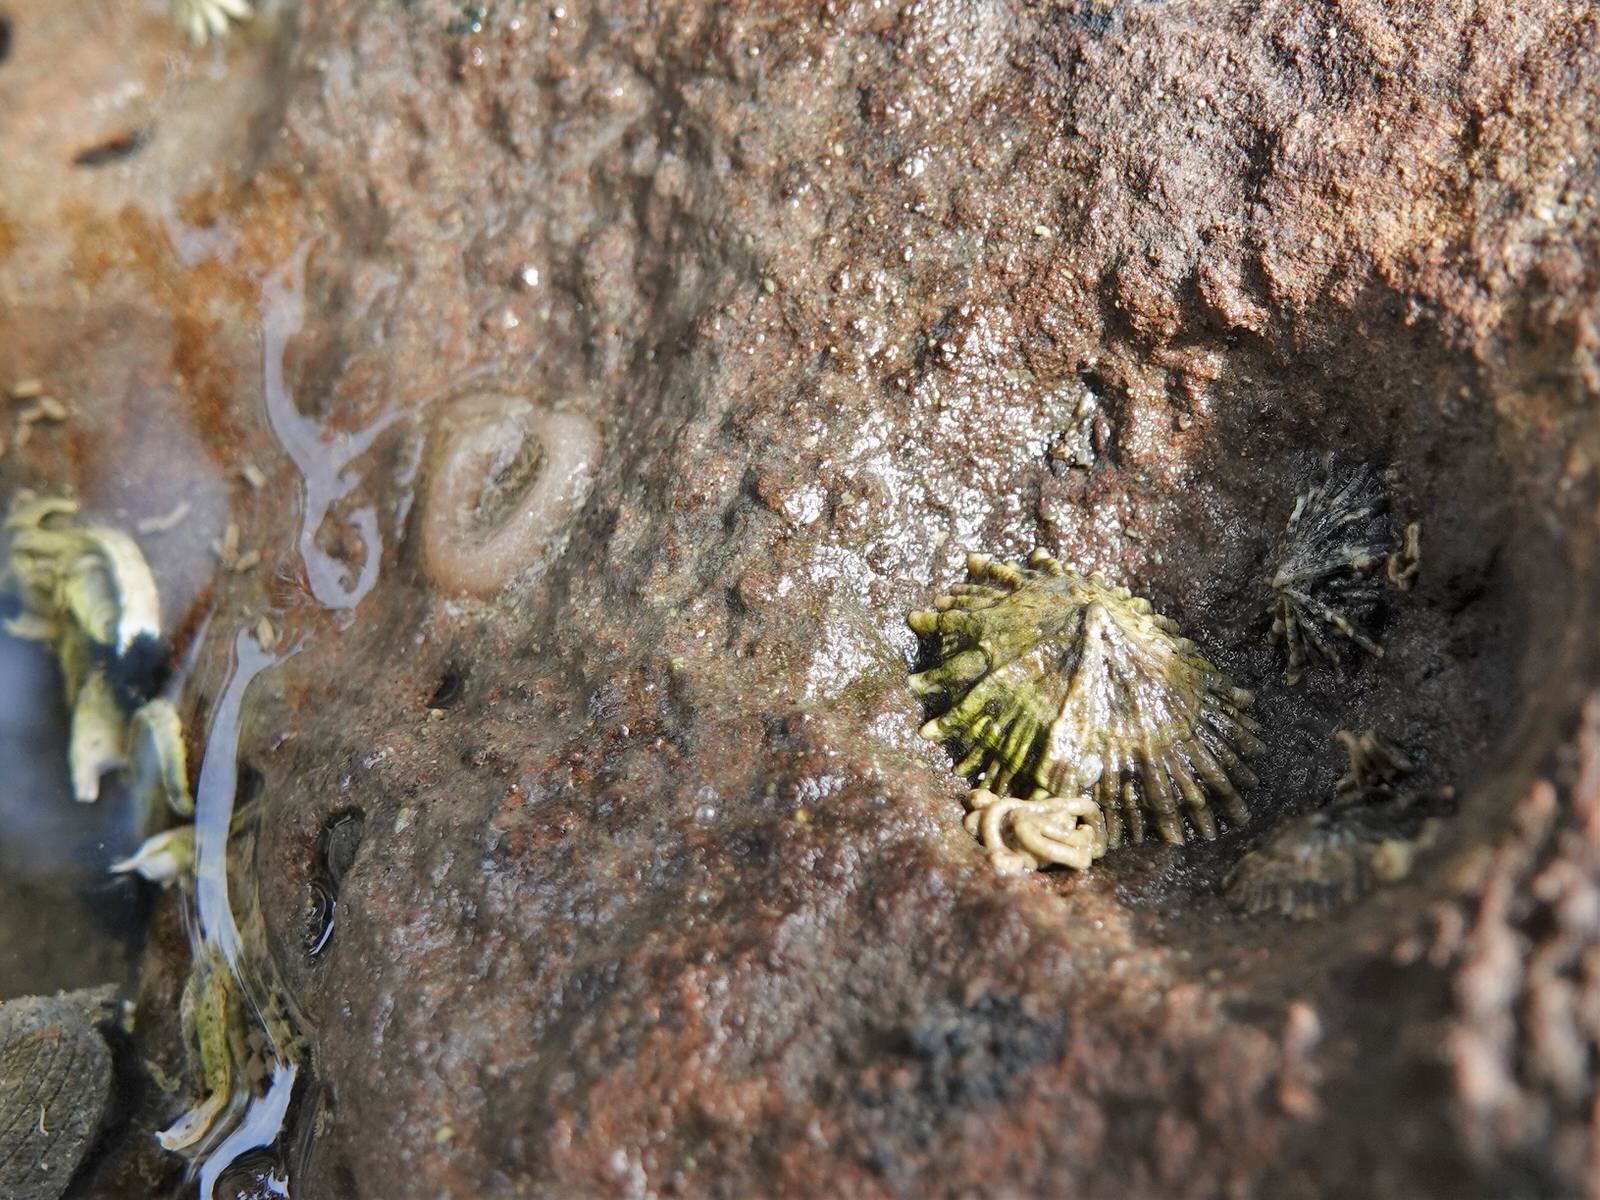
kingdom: Animalia
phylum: Mollusca
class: Gastropoda
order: Siphonariida
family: Siphonariidae
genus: Siphonaria
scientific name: Siphonaria australis
